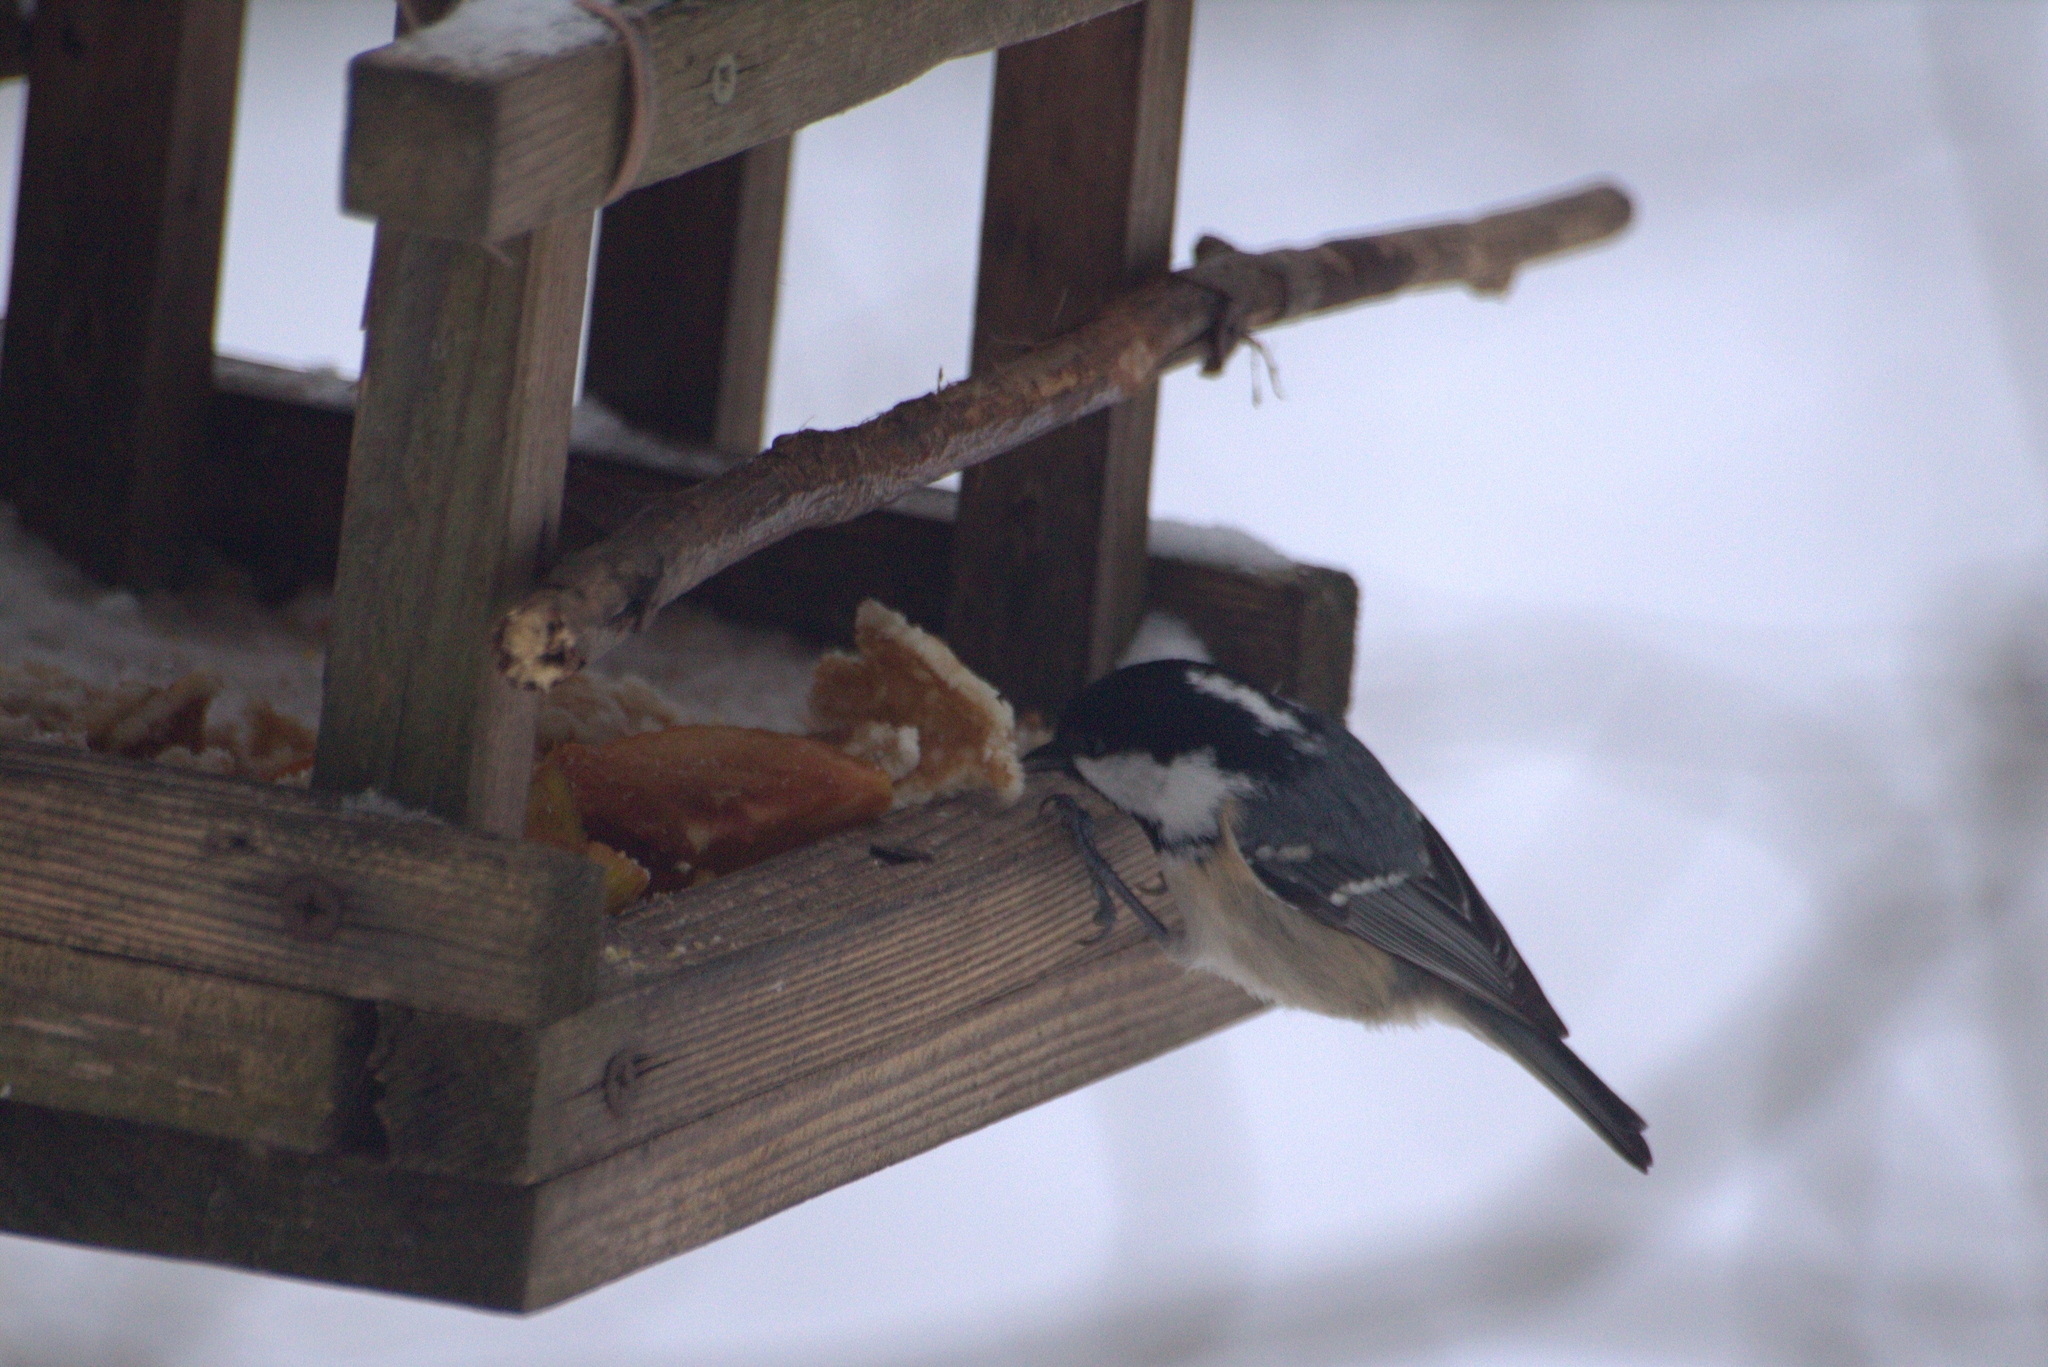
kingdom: Animalia
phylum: Chordata
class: Aves
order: Passeriformes
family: Paridae
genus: Periparus
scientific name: Periparus ater
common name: Coal tit
